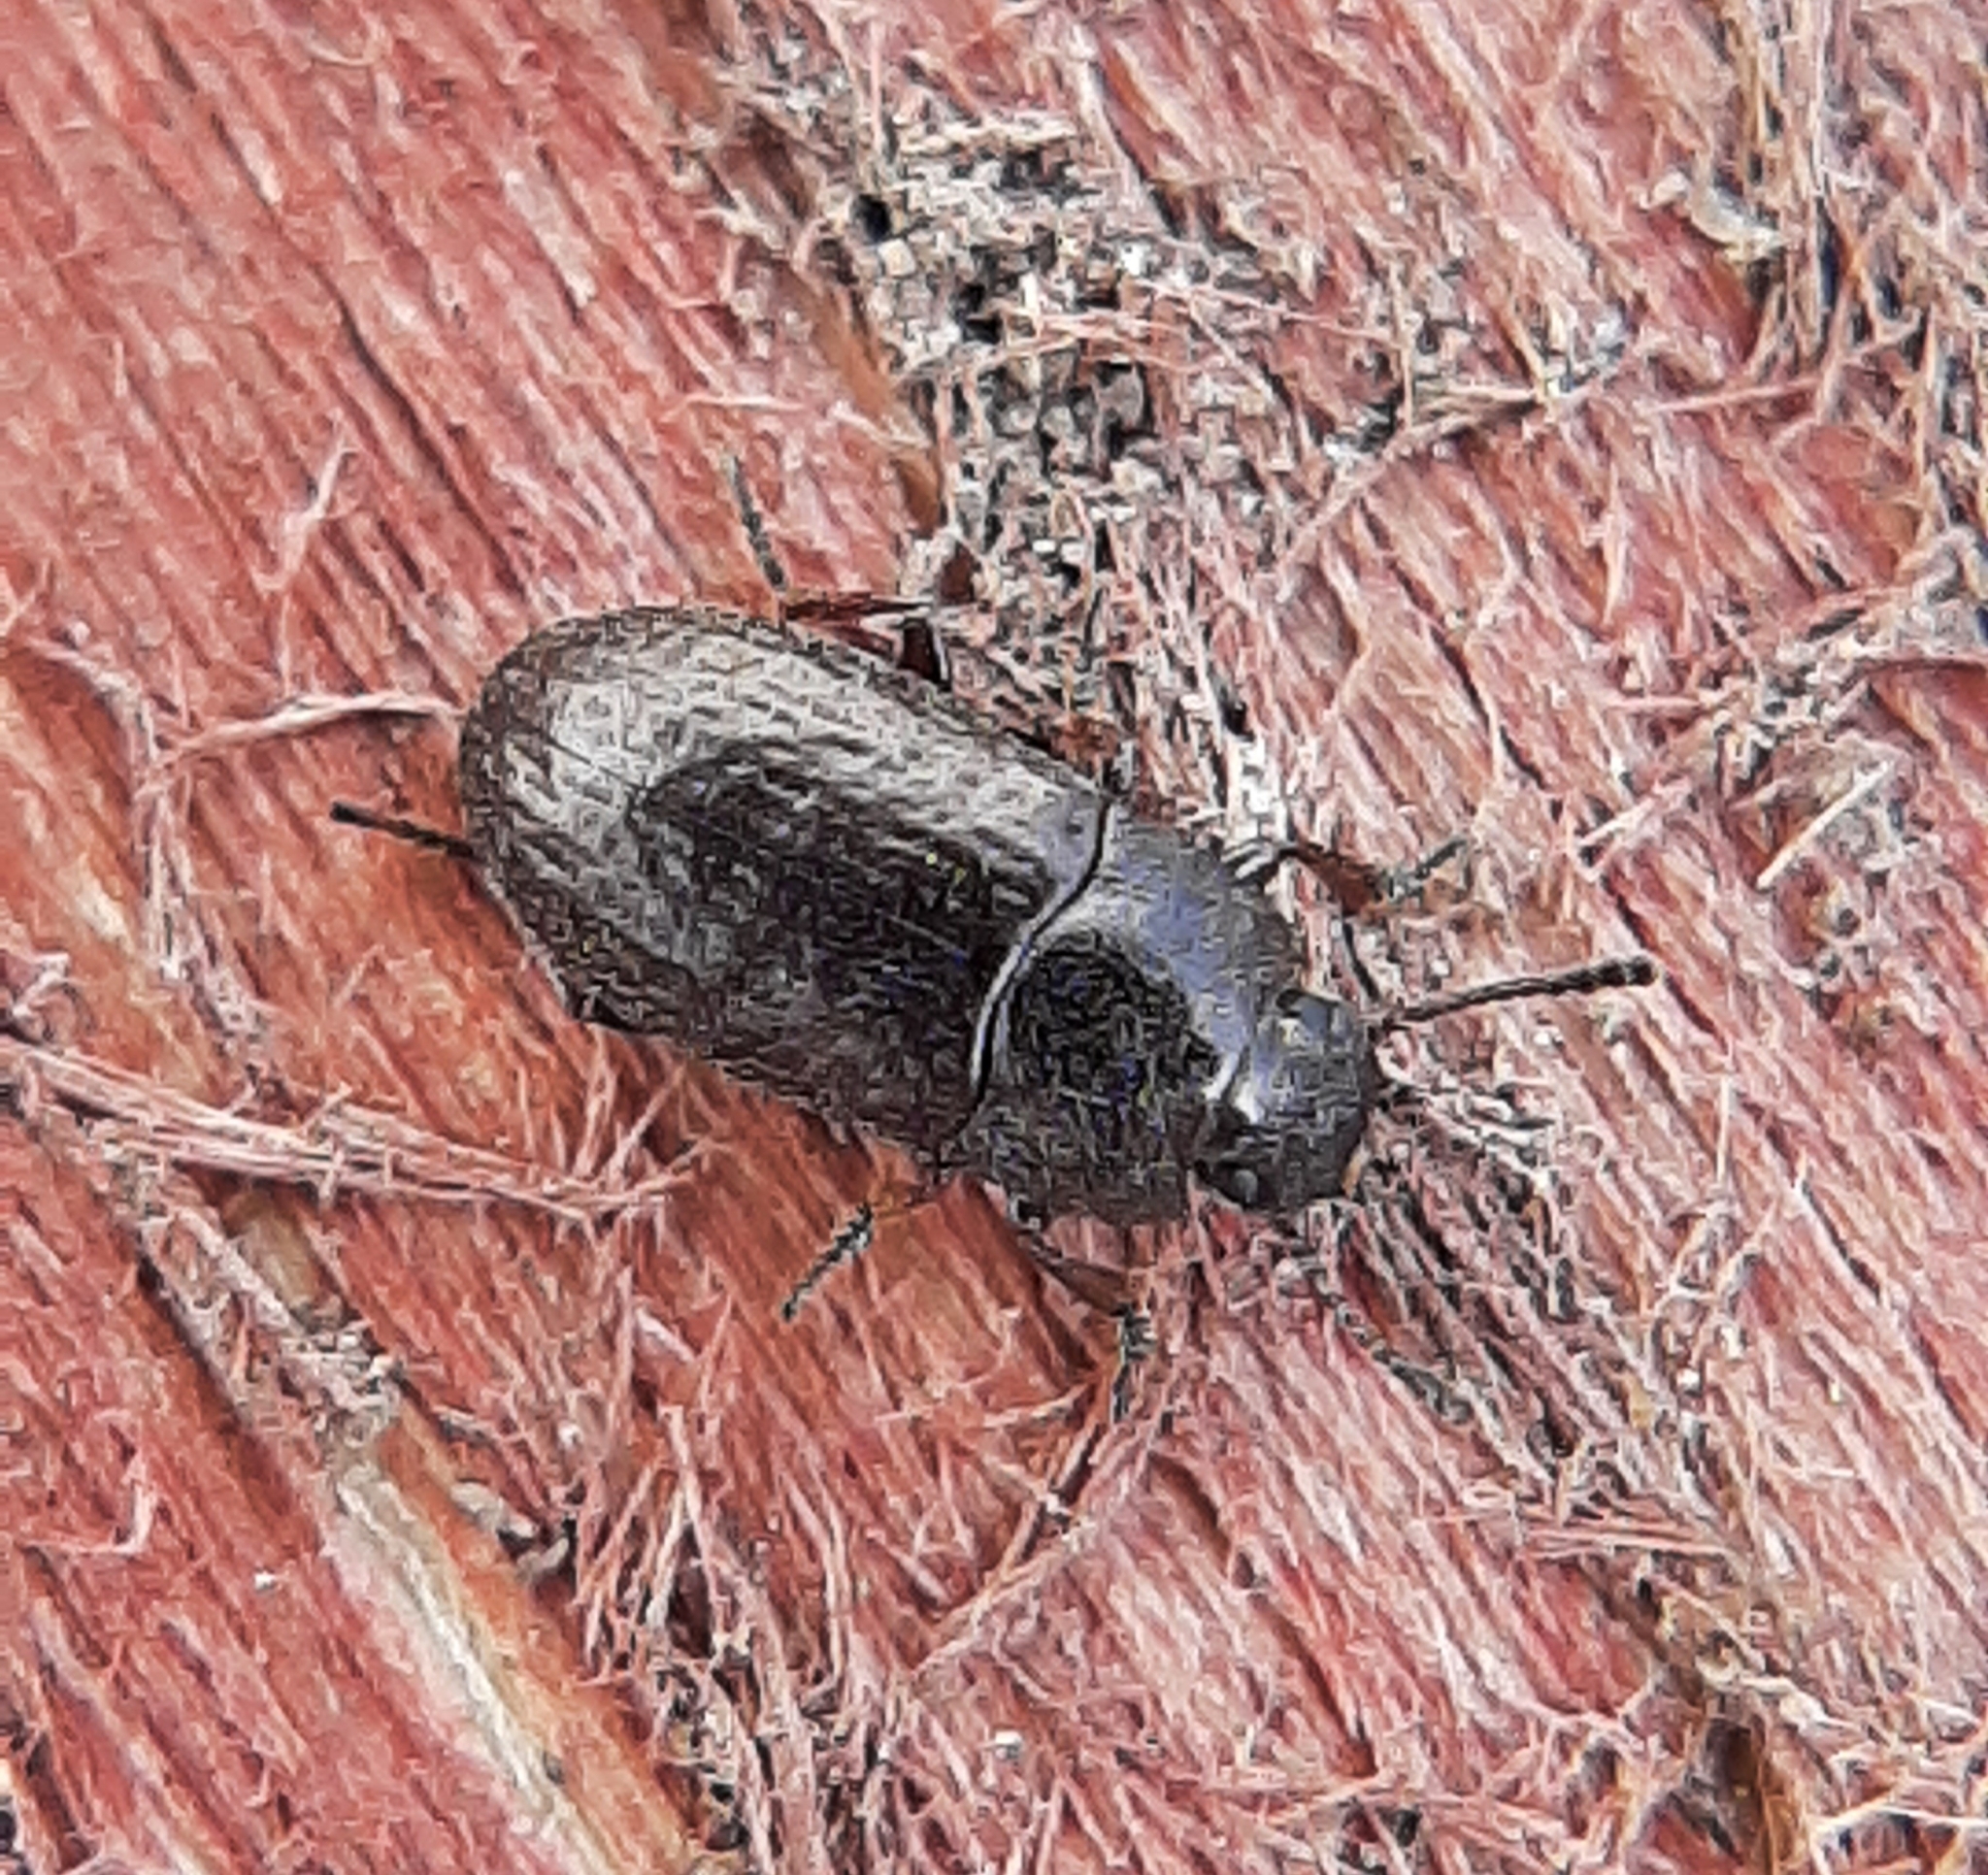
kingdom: Animalia
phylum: Arthropoda
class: Insecta
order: Coleoptera
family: Tenebrionidae
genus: Blapstinus
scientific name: Blapstinus metallicus
